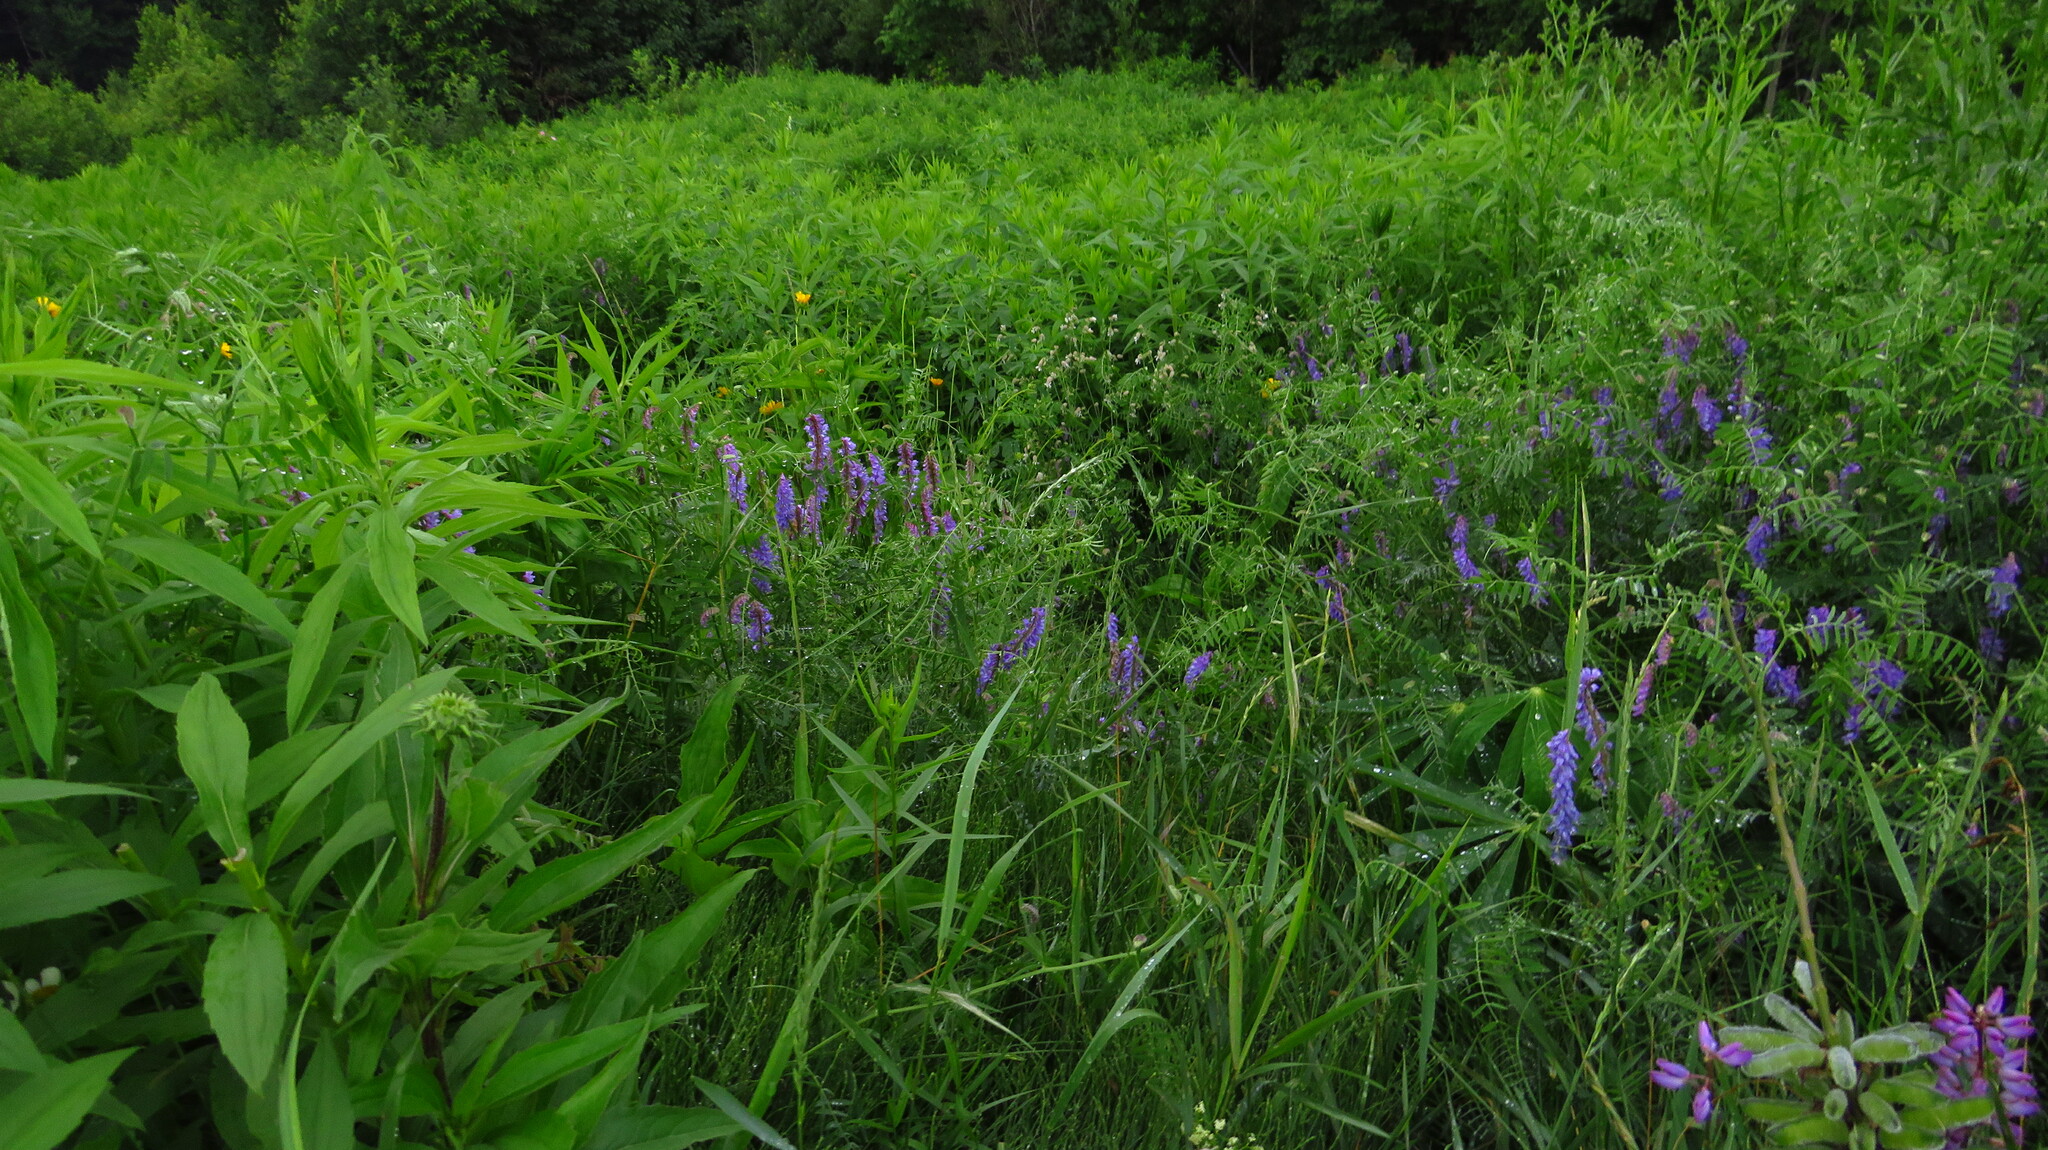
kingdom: Plantae
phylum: Tracheophyta
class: Magnoliopsida
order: Fabales
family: Fabaceae
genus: Vicia
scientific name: Vicia cracca
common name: Bird vetch
